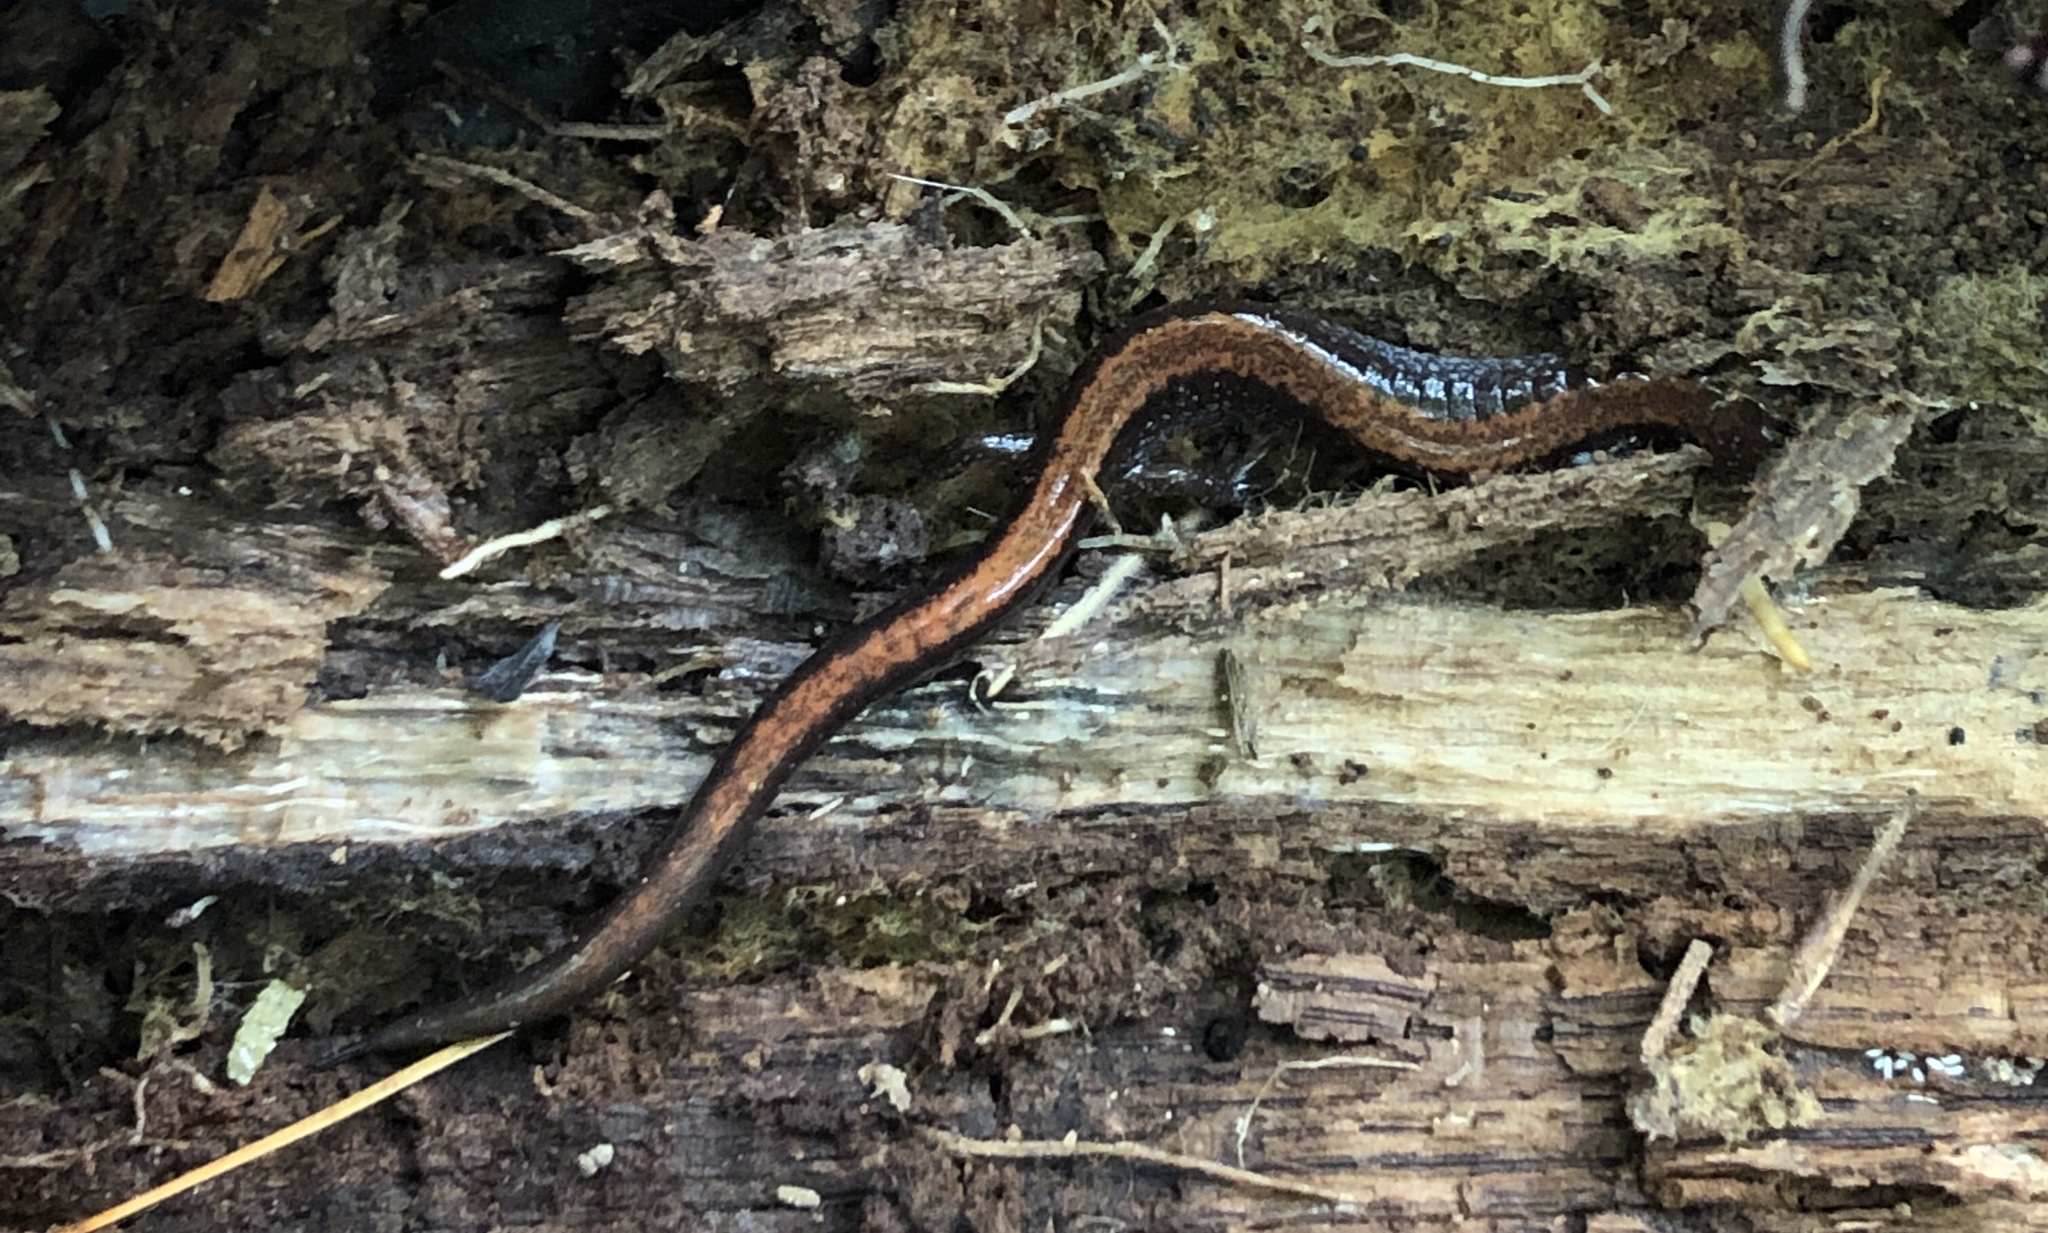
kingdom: Animalia
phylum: Chordata
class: Amphibia
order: Caudata
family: Plethodontidae
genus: Plethodon
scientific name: Plethodon cinereus
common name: Redback salamander
